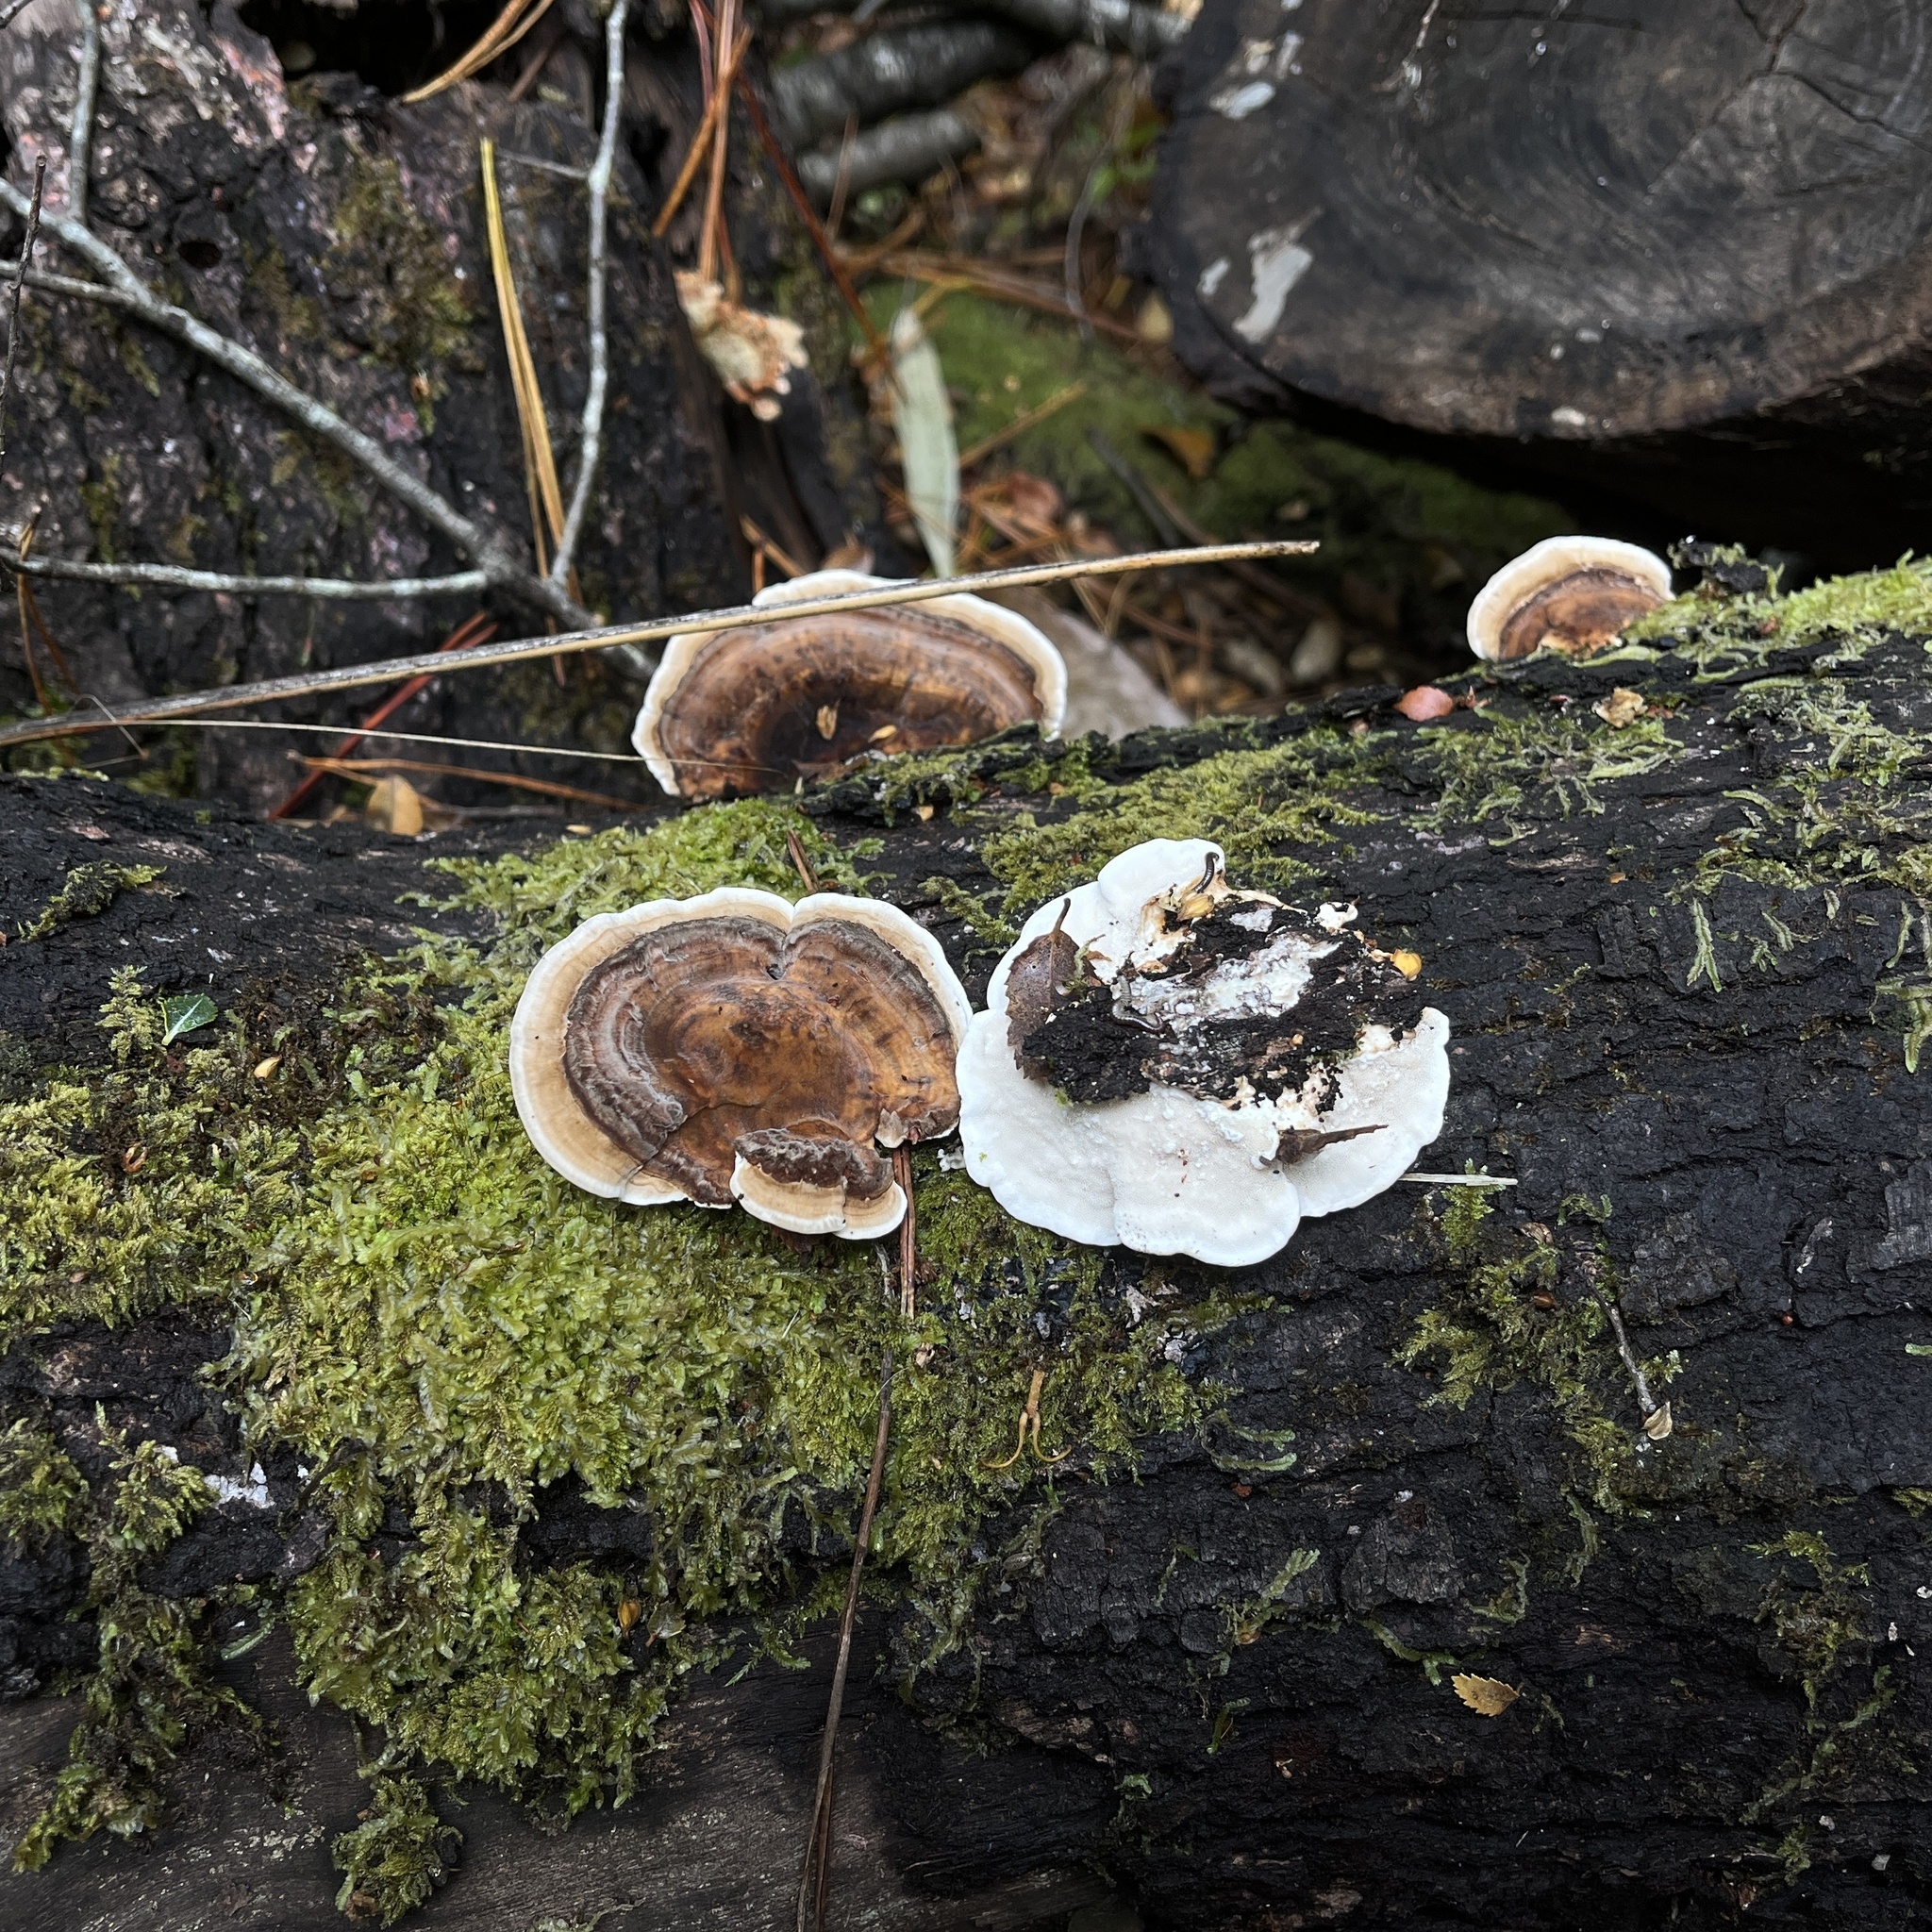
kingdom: Fungi
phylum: Basidiomycota
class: Agaricomycetes
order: Polyporales
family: Polyporaceae
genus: Trametes
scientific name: Trametes versicolor
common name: Turkeytail
